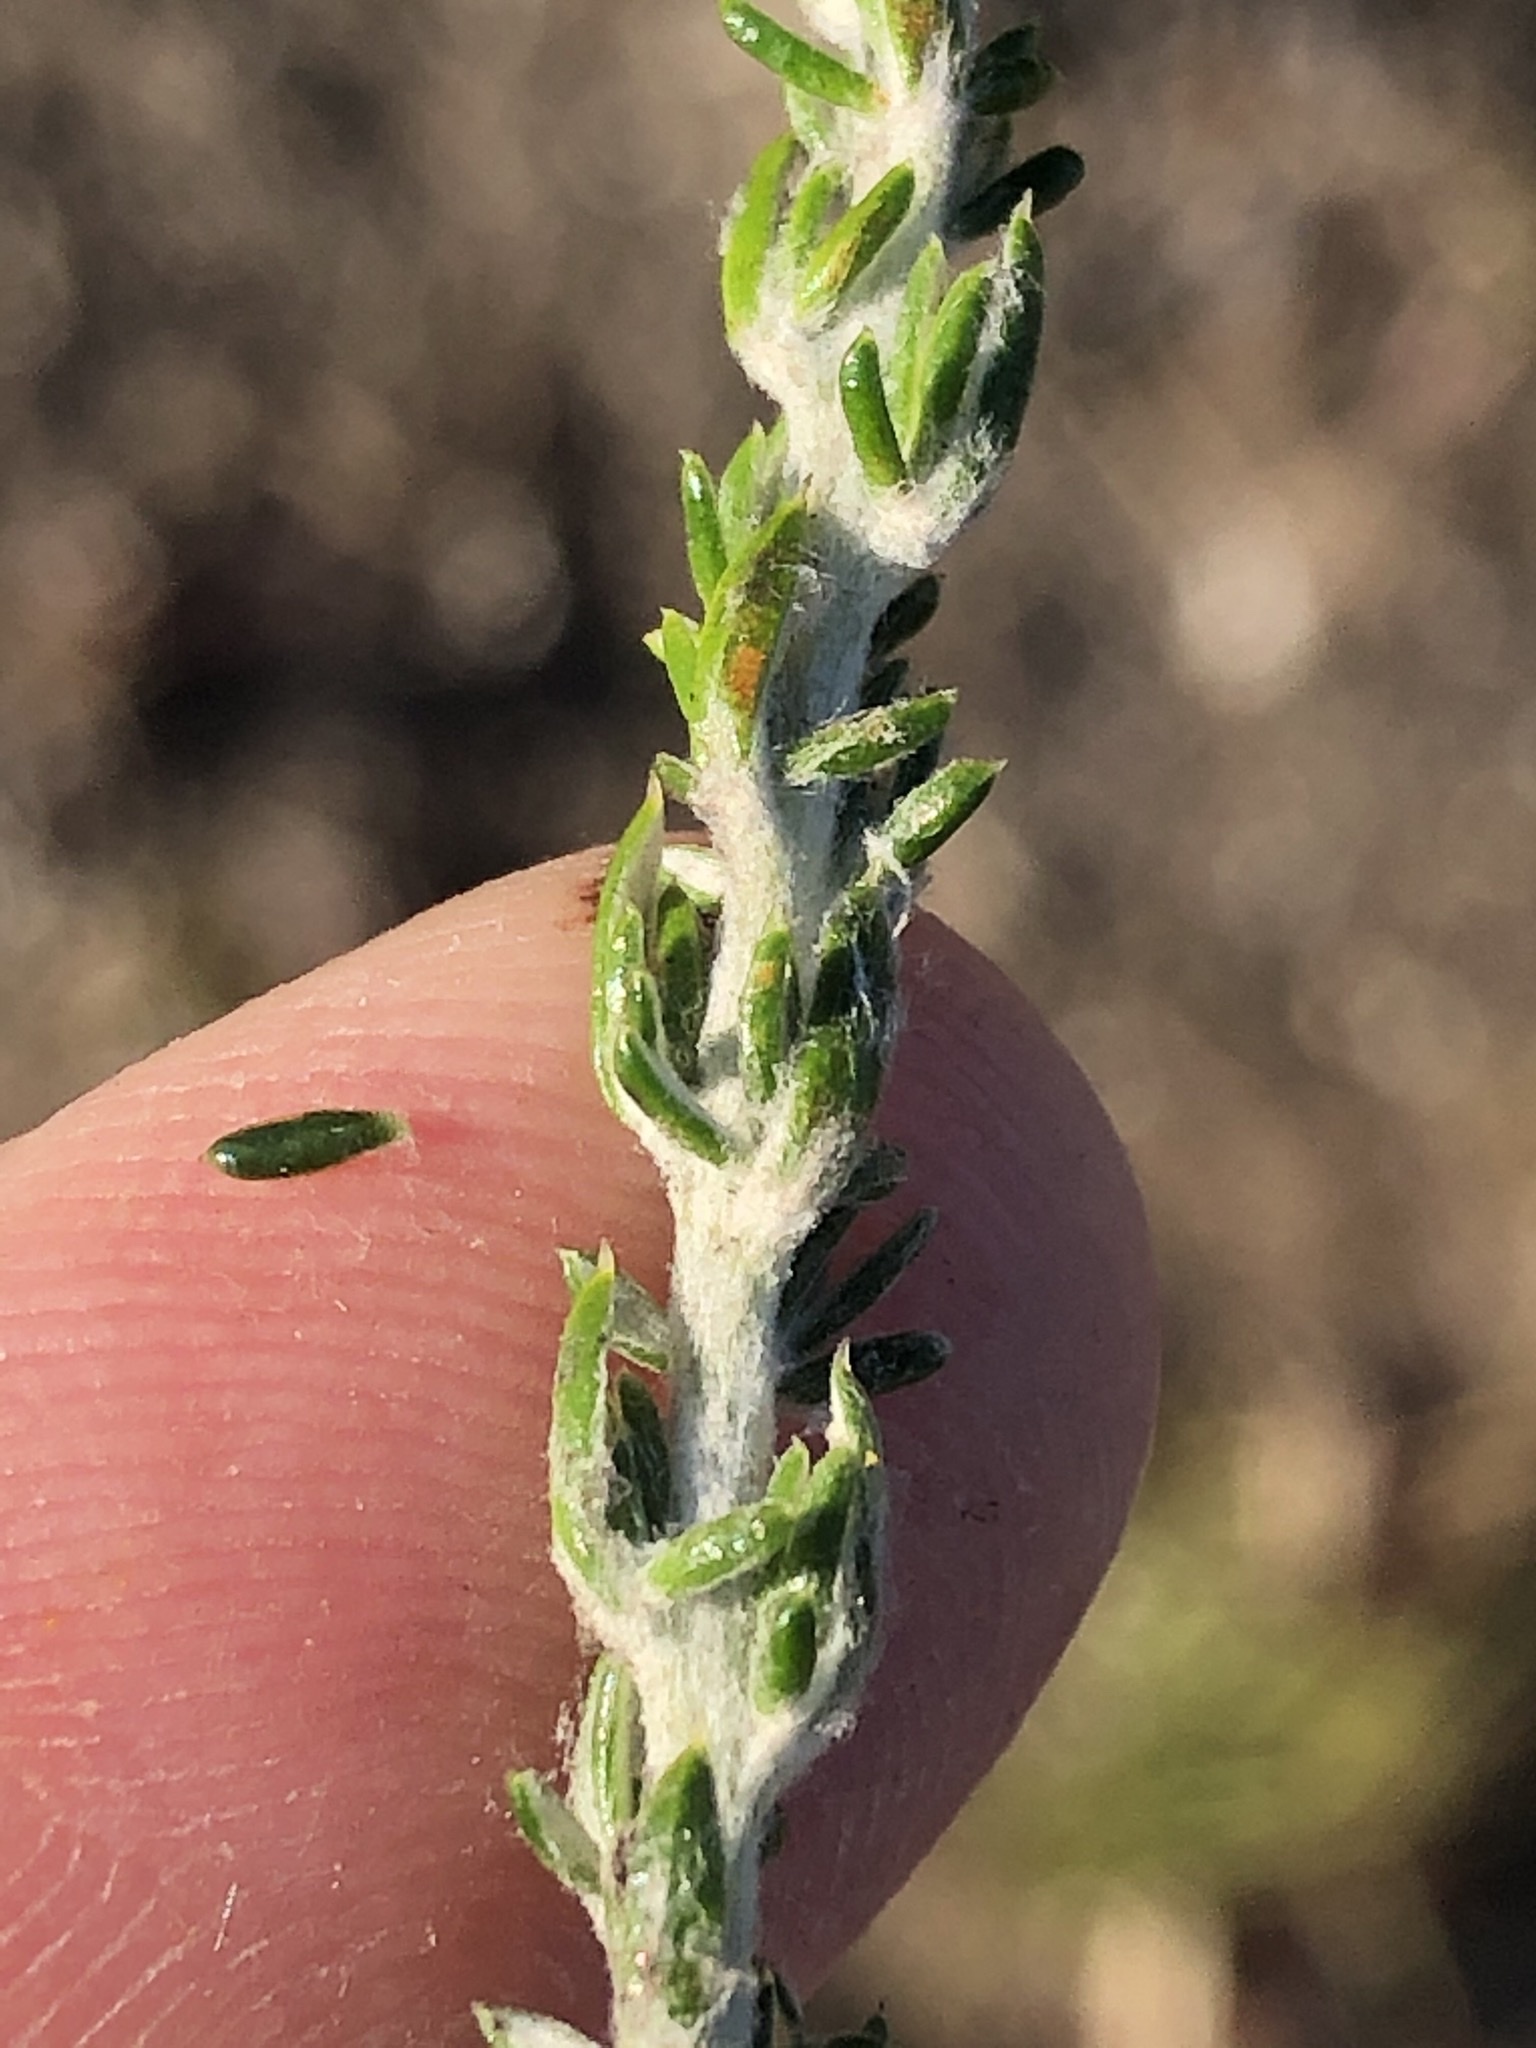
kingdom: Plantae
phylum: Tracheophyta
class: Magnoliopsida
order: Asterales
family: Asteraceae
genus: Metalasia
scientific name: Metalasia pungens
